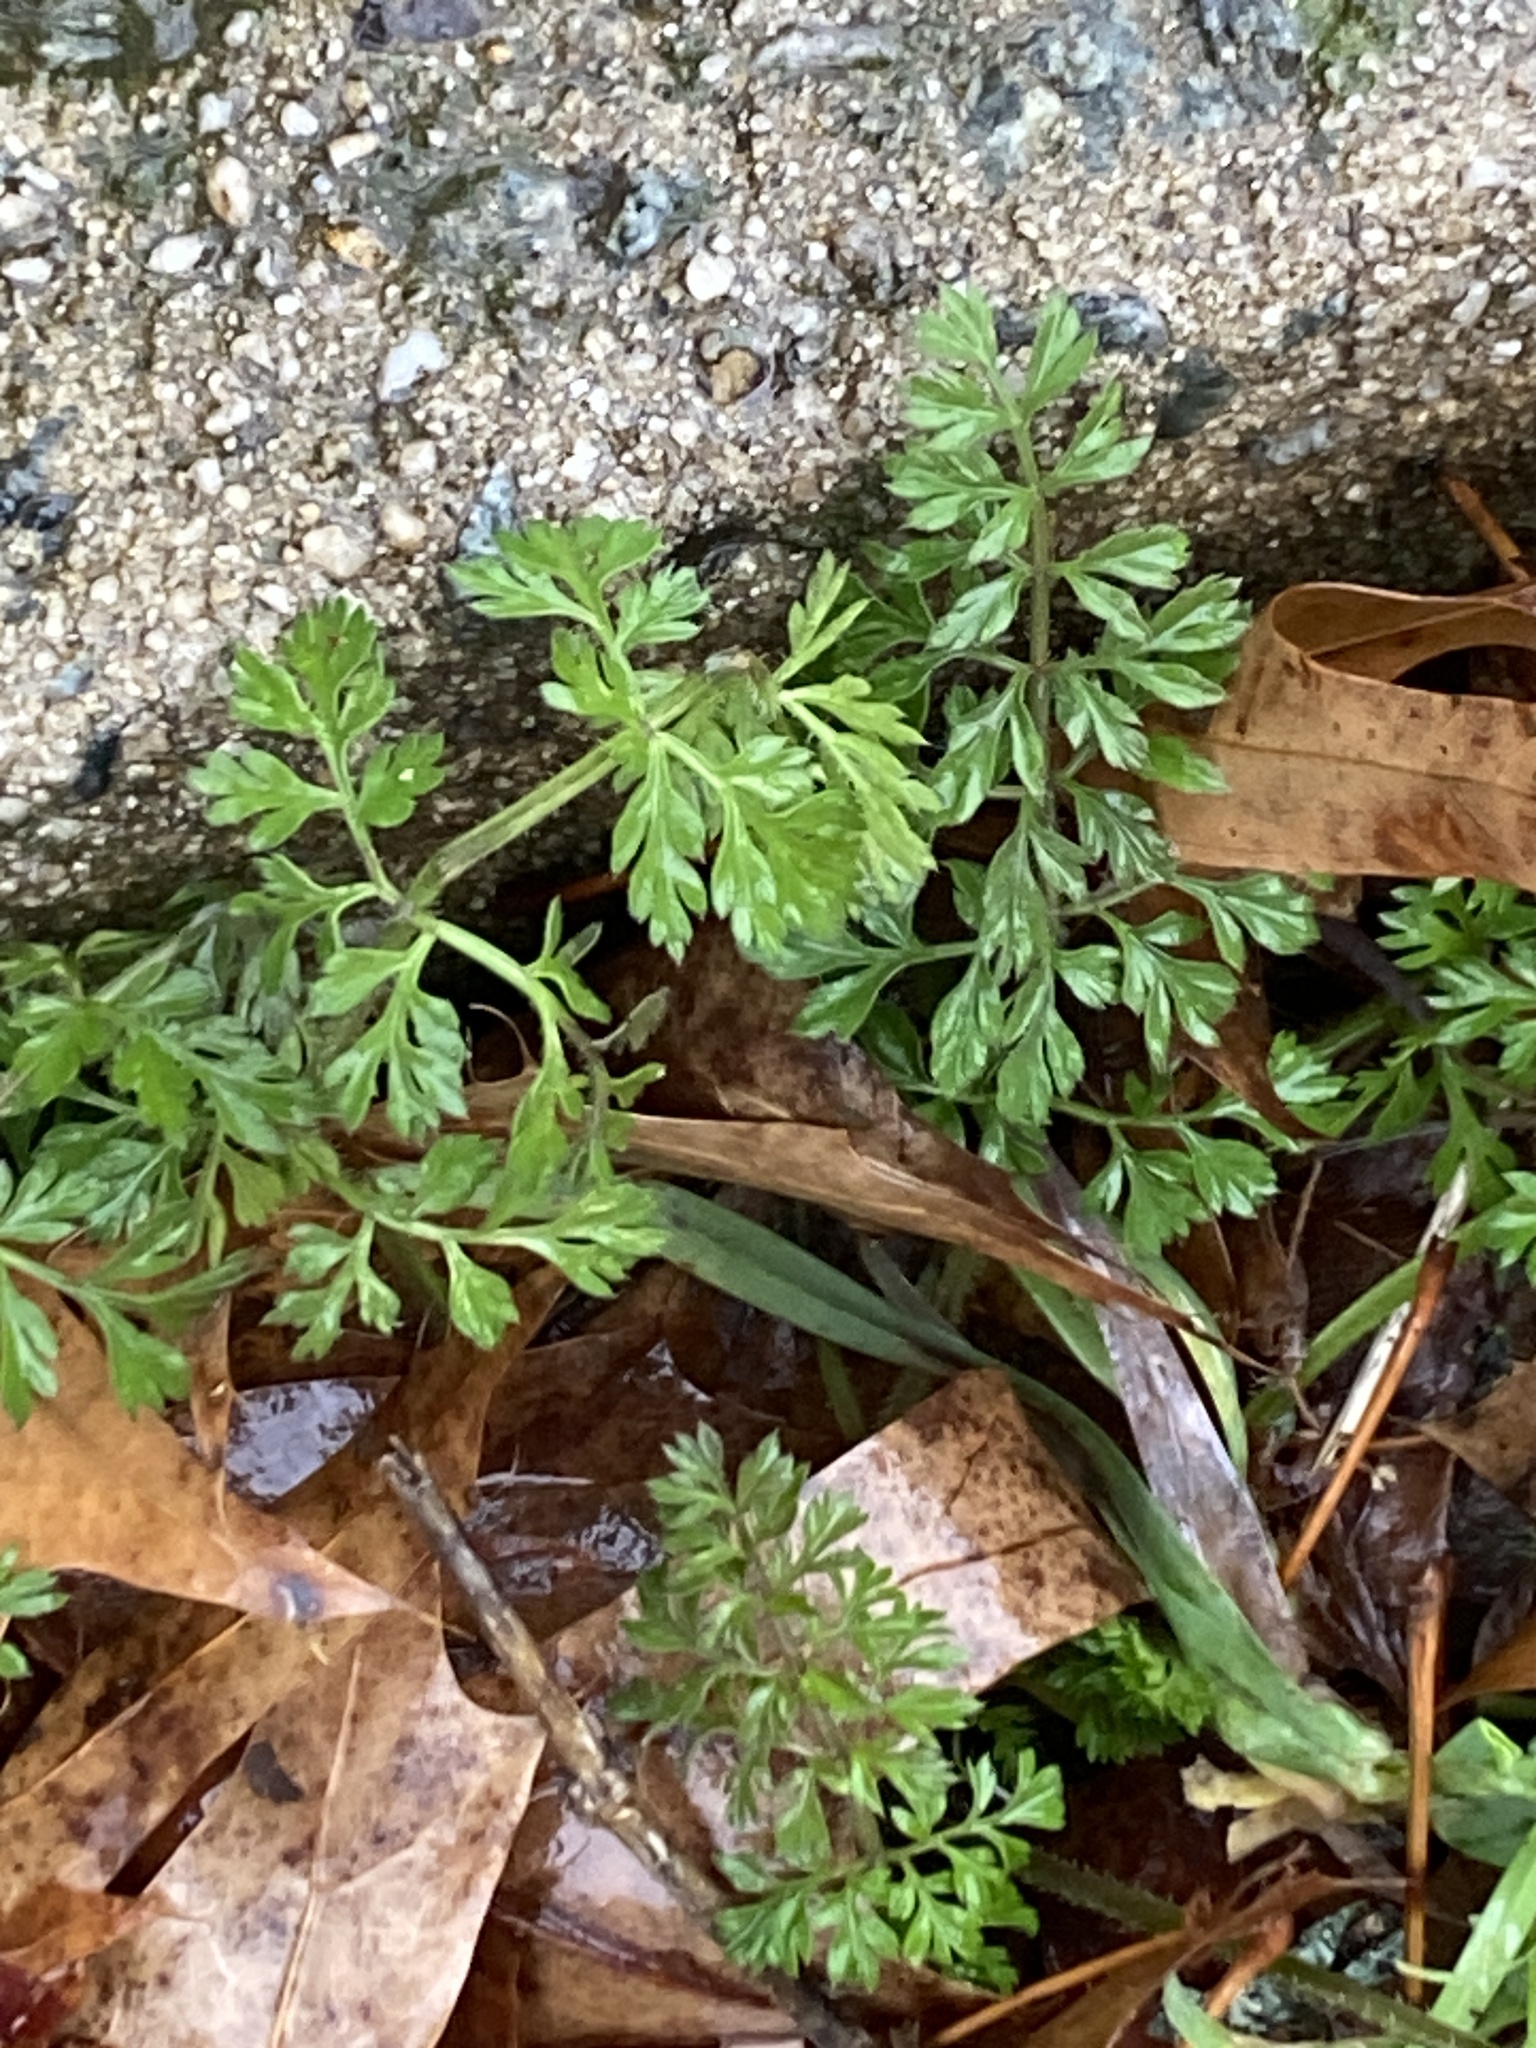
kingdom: Plantae
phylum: Tracheophyta
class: Magnoliopsida
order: Apiales
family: Apiaceae
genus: Daucus
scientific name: Daucus carota
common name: Wild carrot
